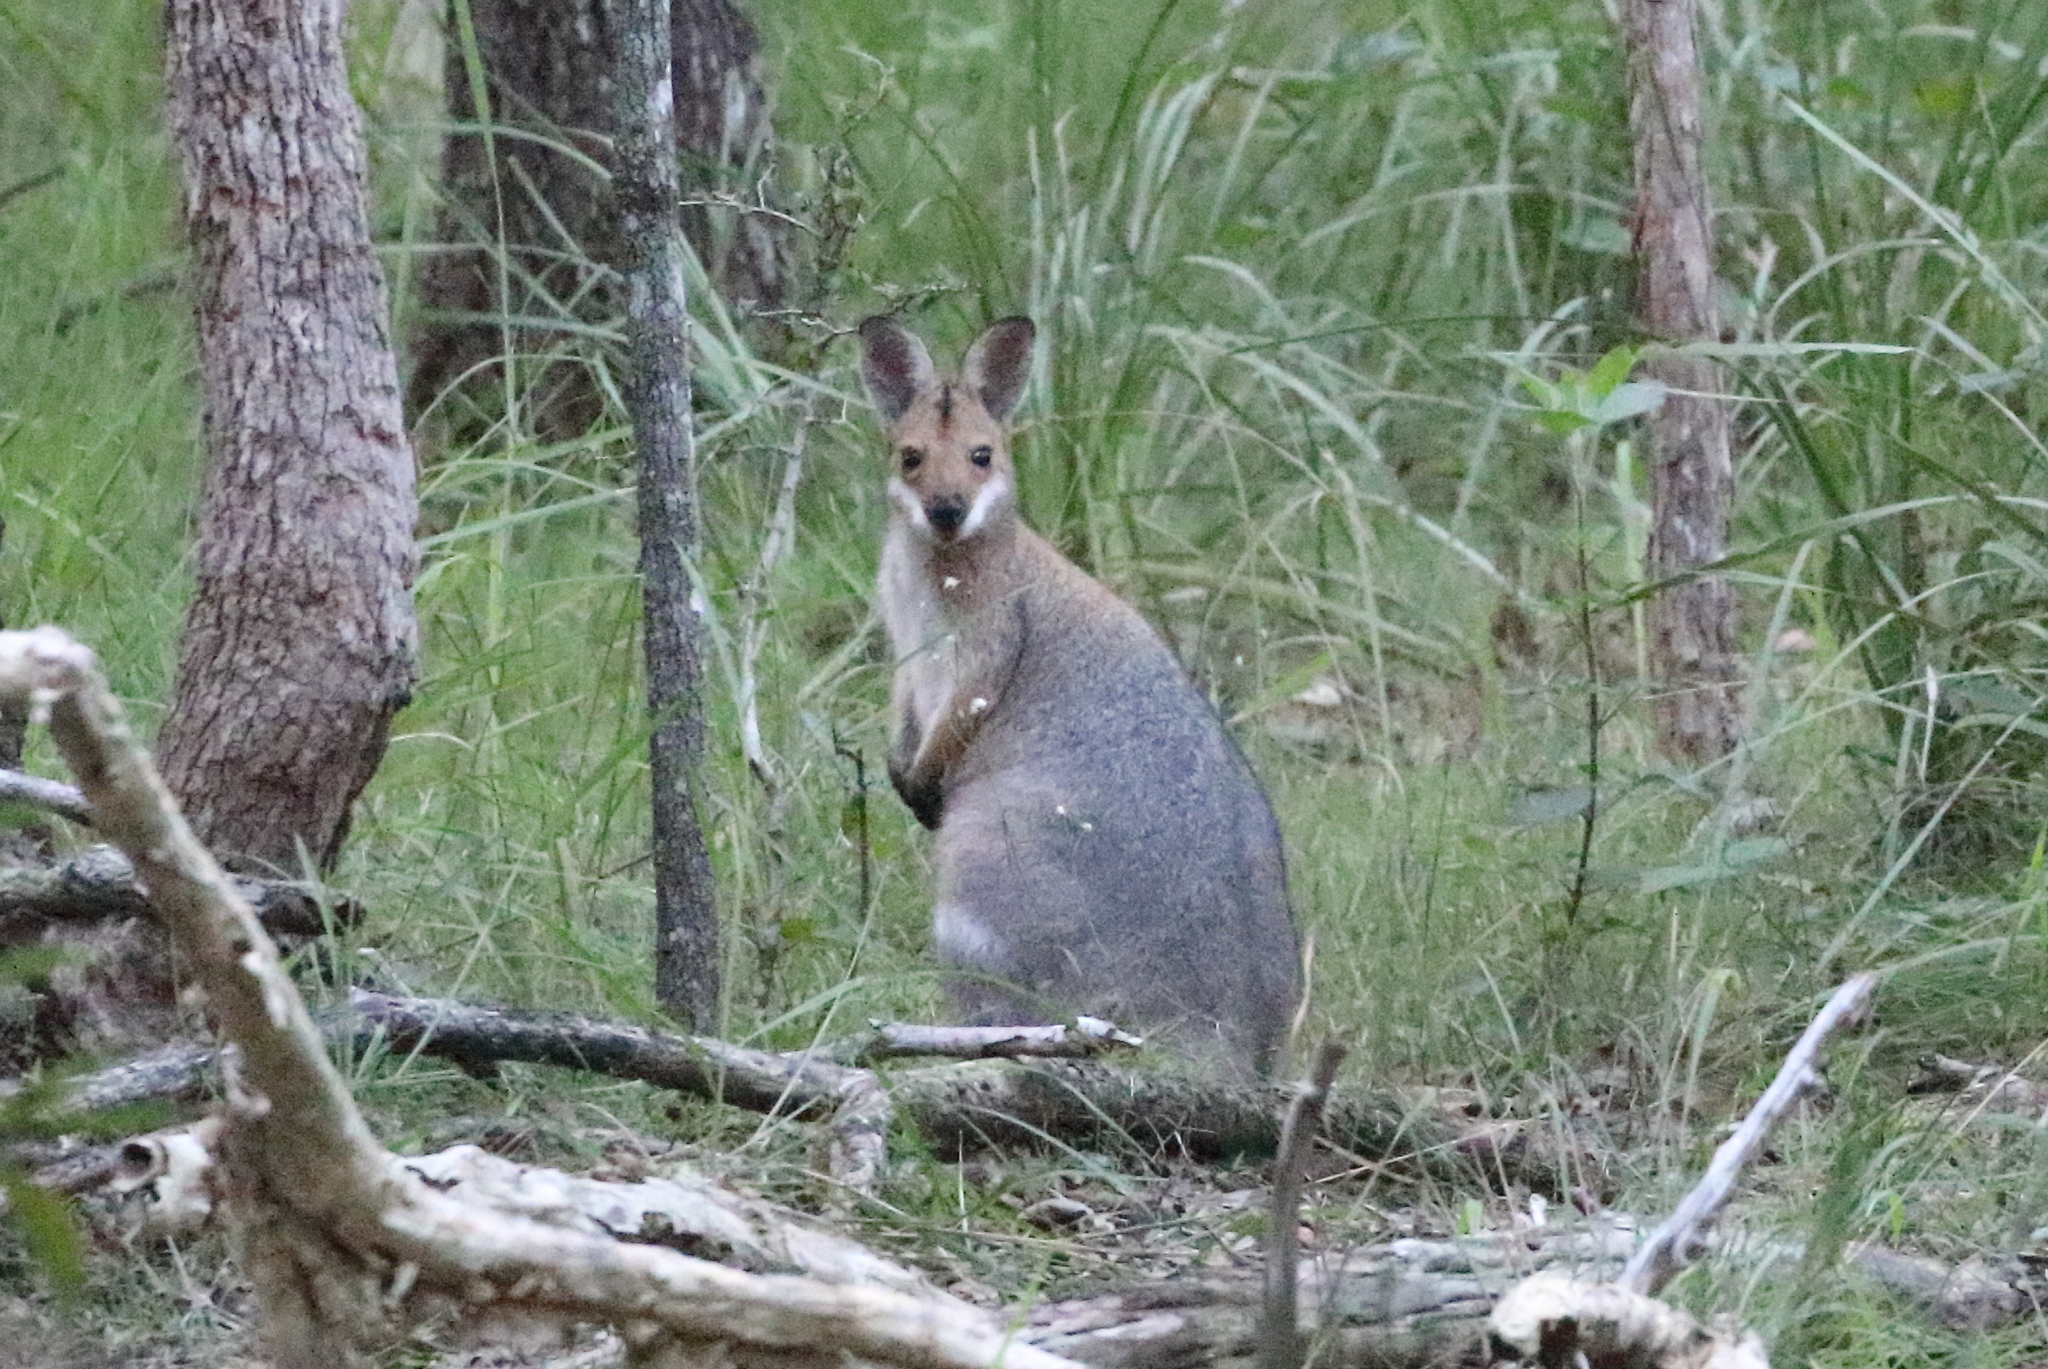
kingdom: Animalia
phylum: Chordata
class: Mammalia
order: Diprotodontia
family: Macropodidae
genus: Notamacropus
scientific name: Notamacropus rufogriseus
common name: Red-necked wallaby
